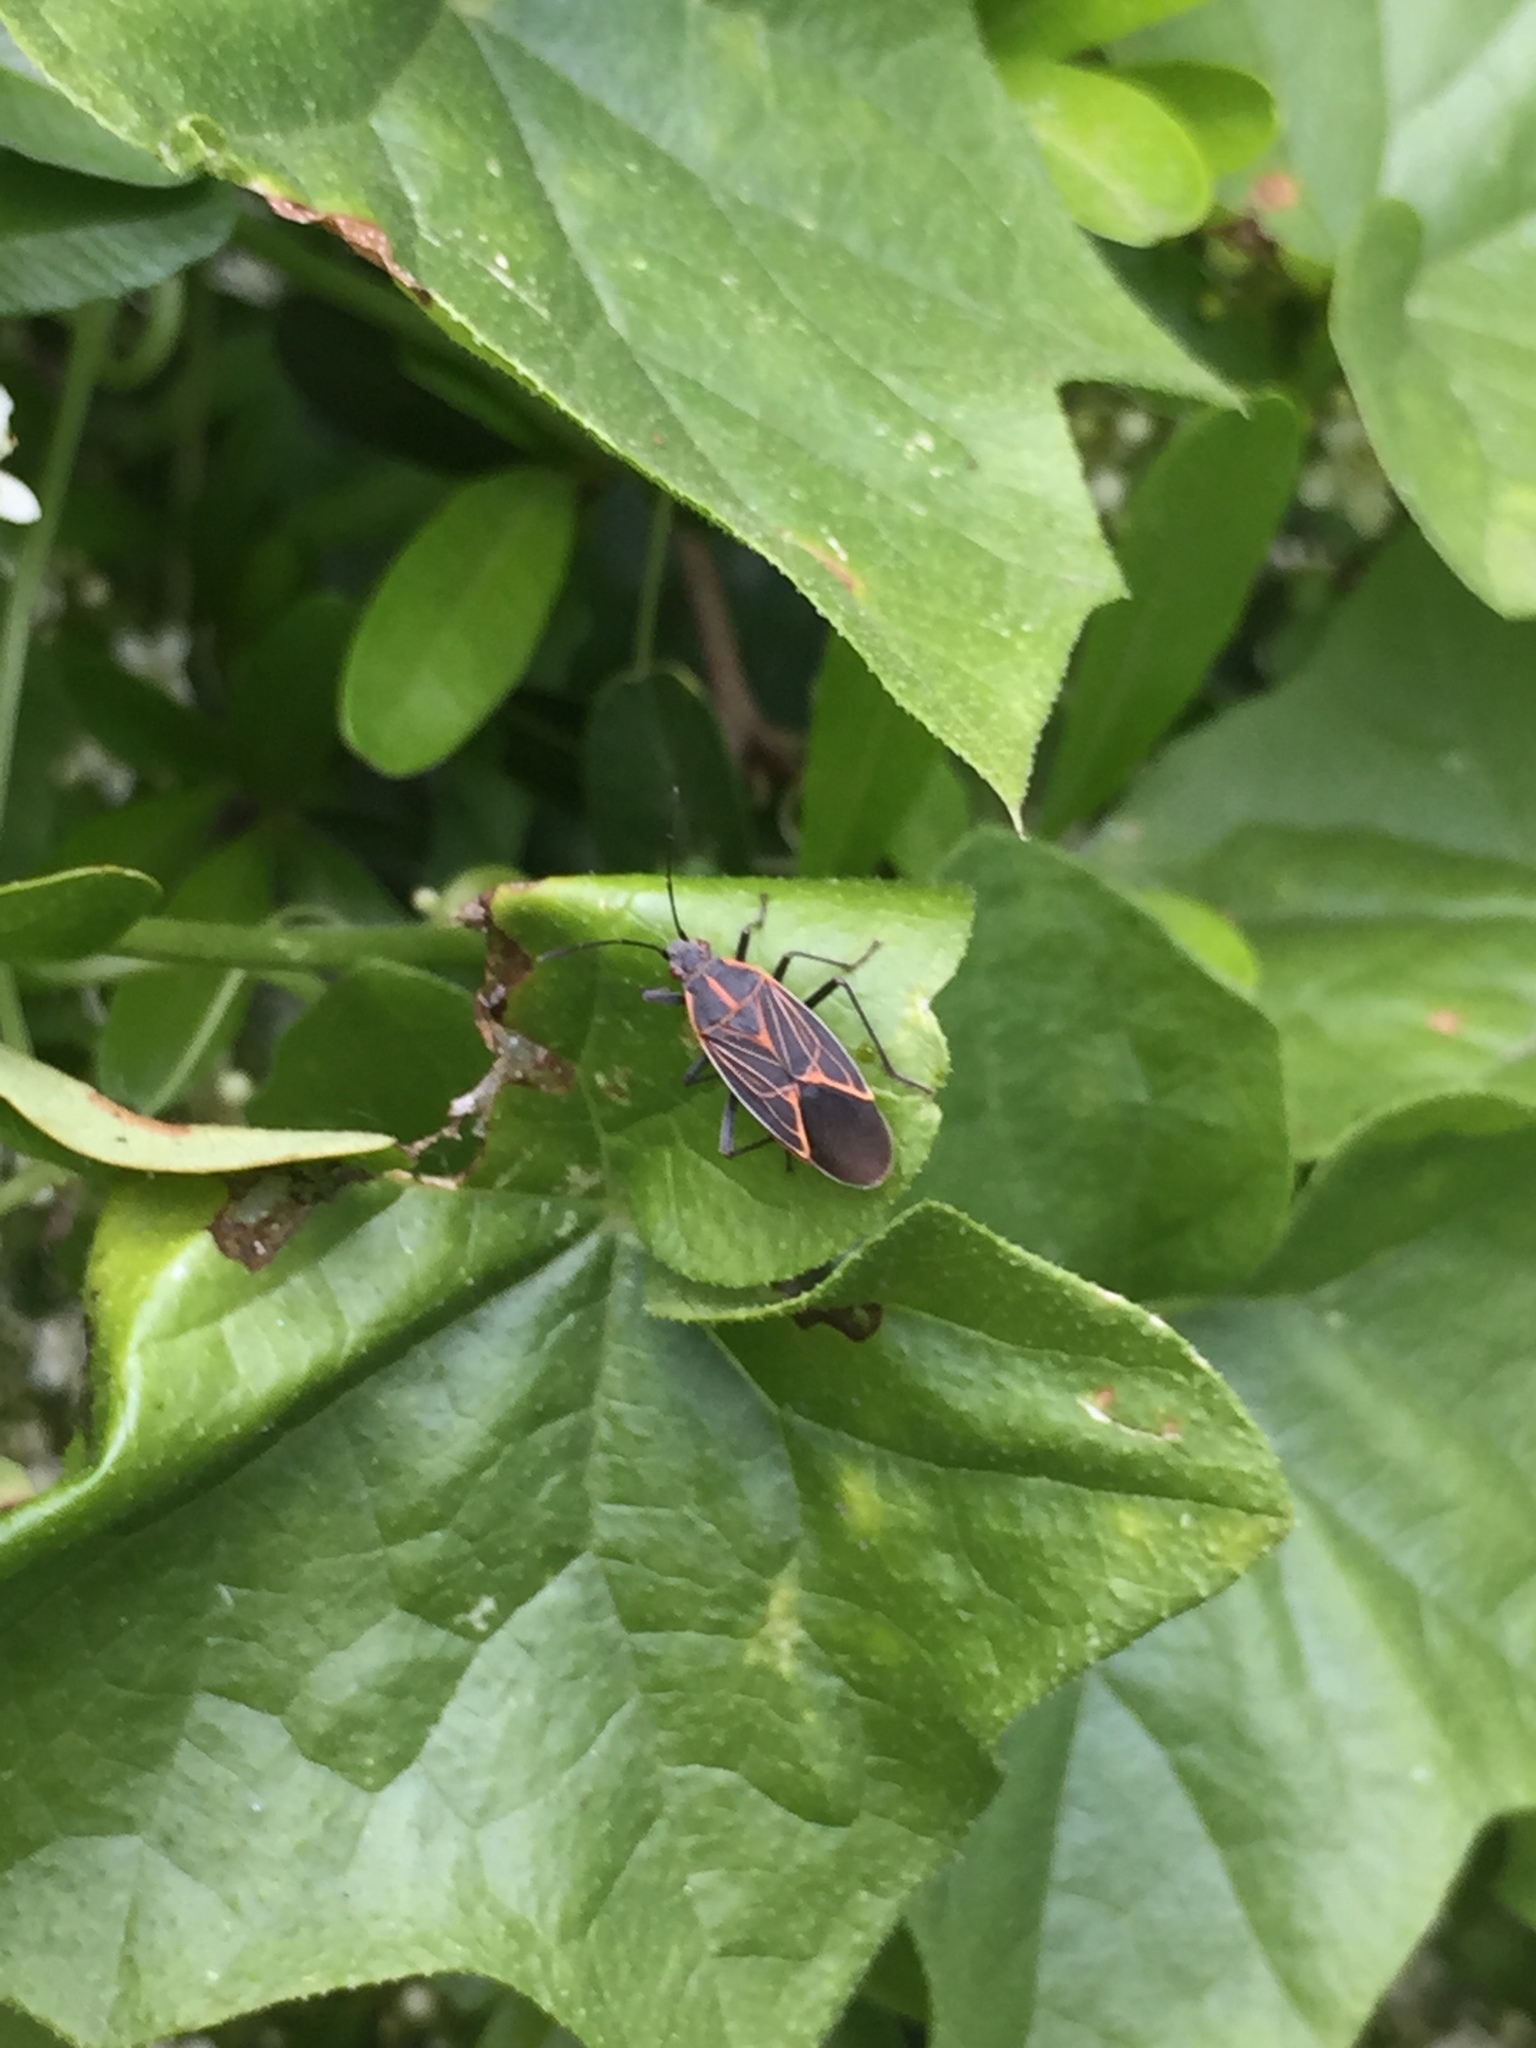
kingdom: Animalia
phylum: Arthropoda
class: Insecta
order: Hemiptera
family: Rhopalidae
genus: Boisea
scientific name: Boisea rubrolineata
